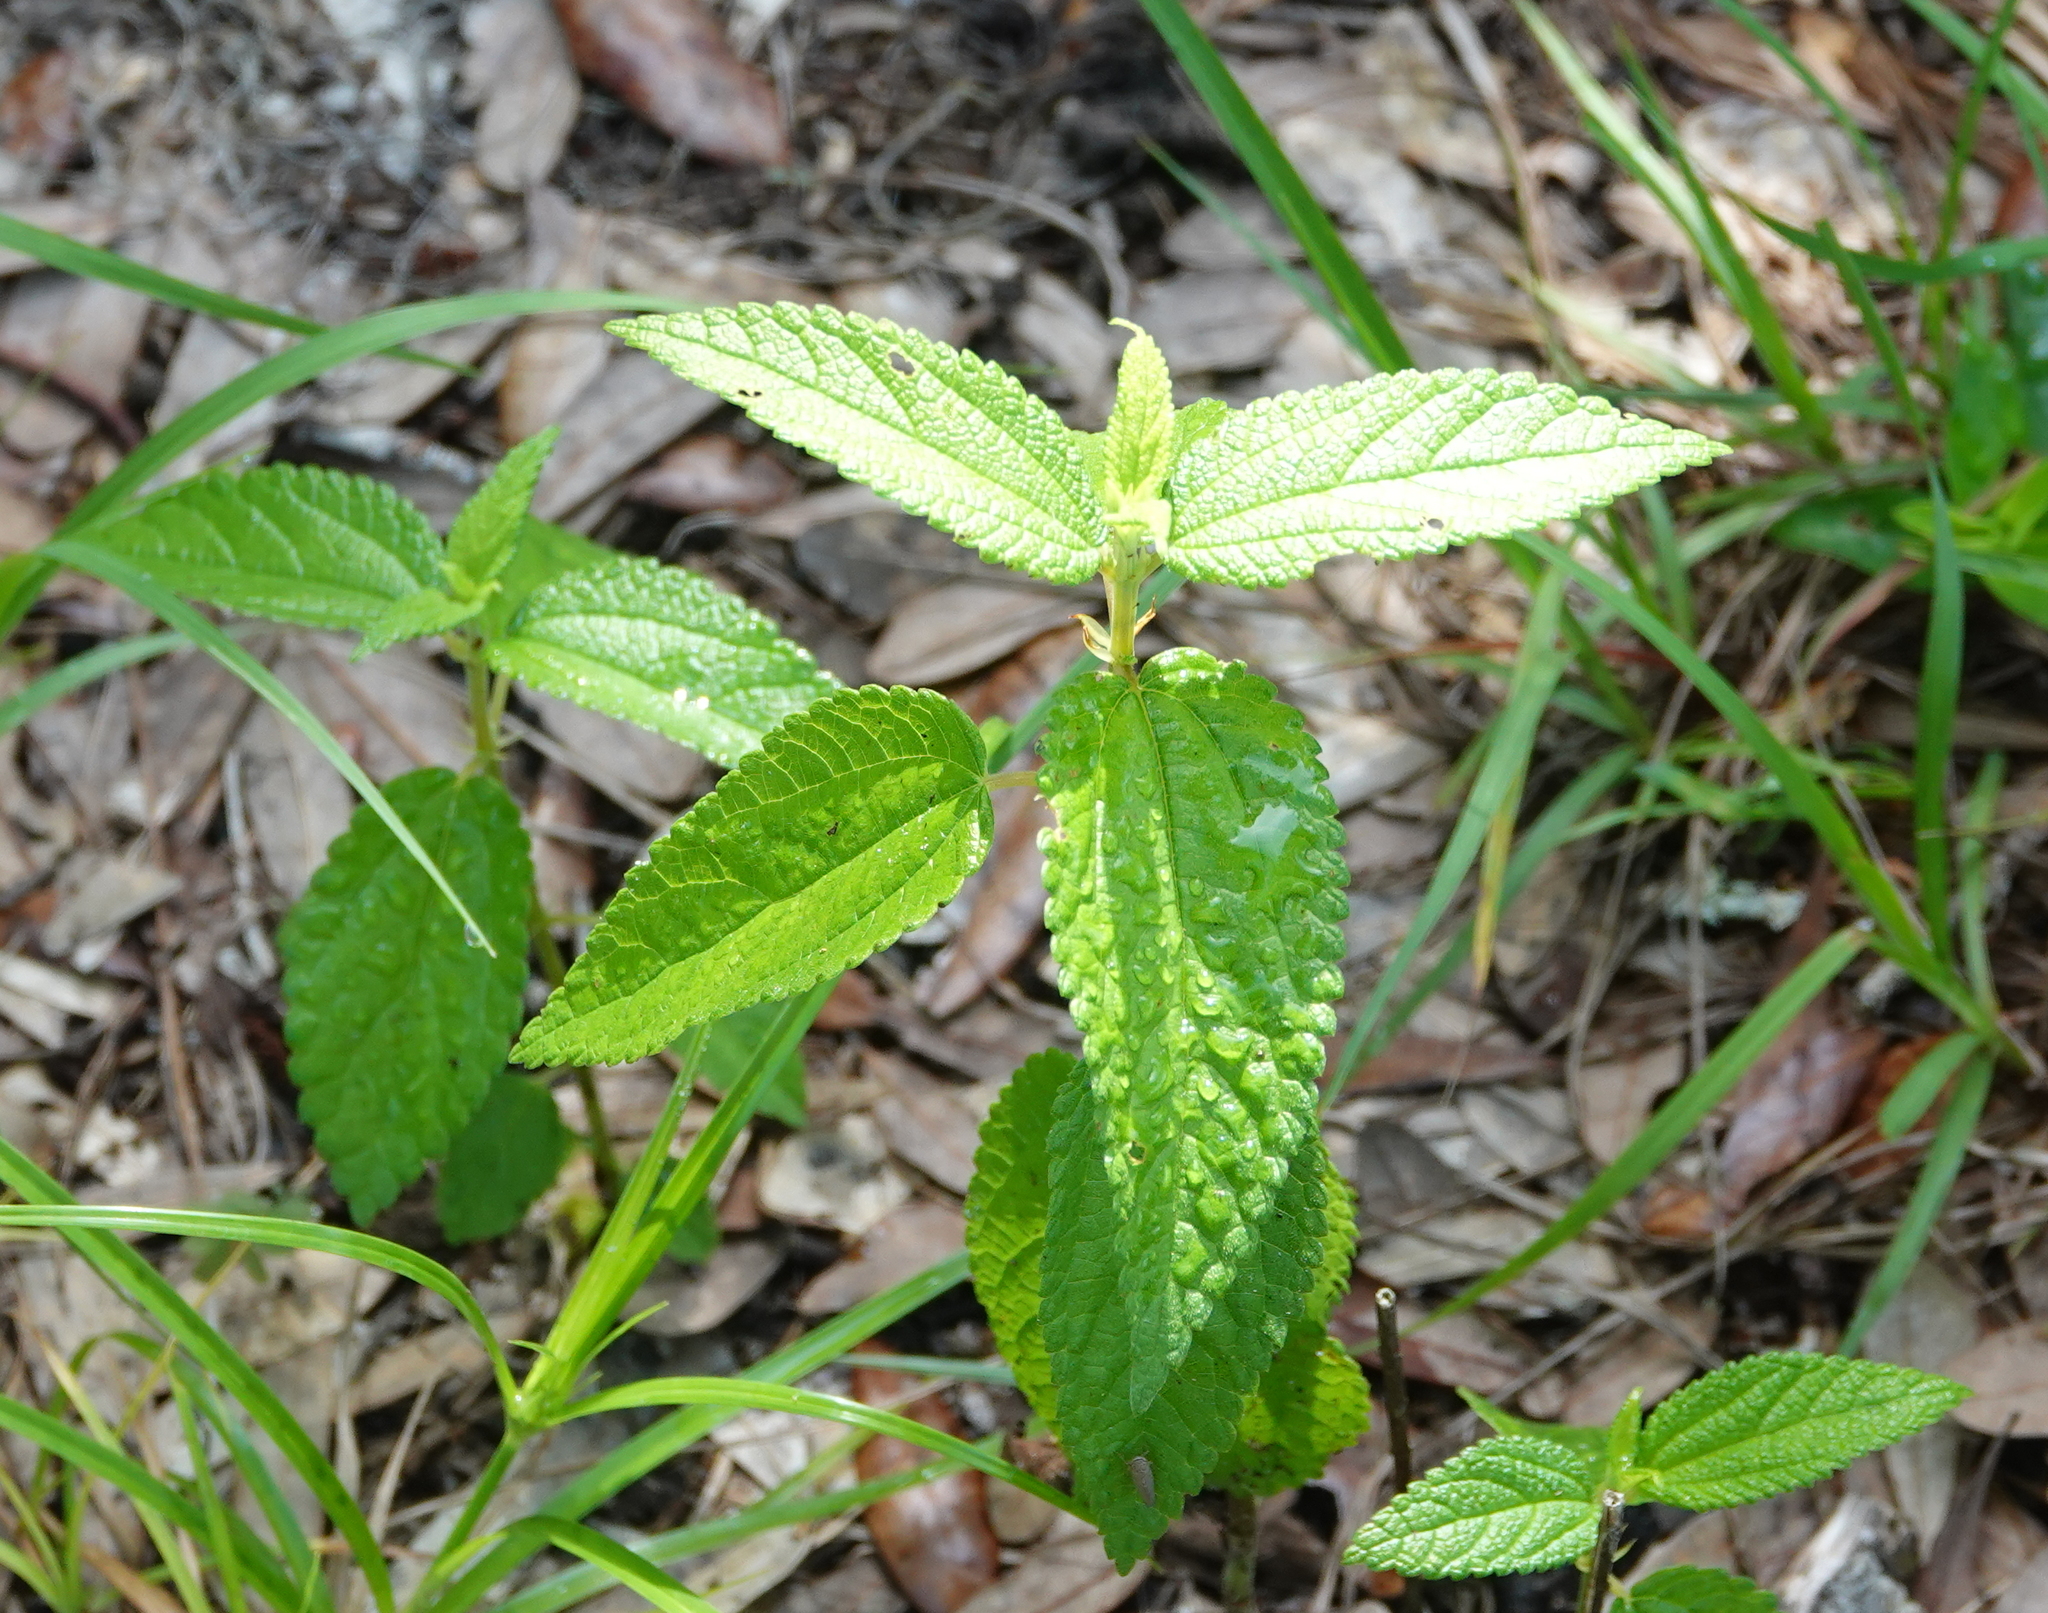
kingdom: Plantae
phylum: Tracheophyta
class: Magnoliopsida
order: Rosales
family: Urticaceae
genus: Boehmeria
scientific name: Boehmeria cylindrica
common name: Bog-hemp
